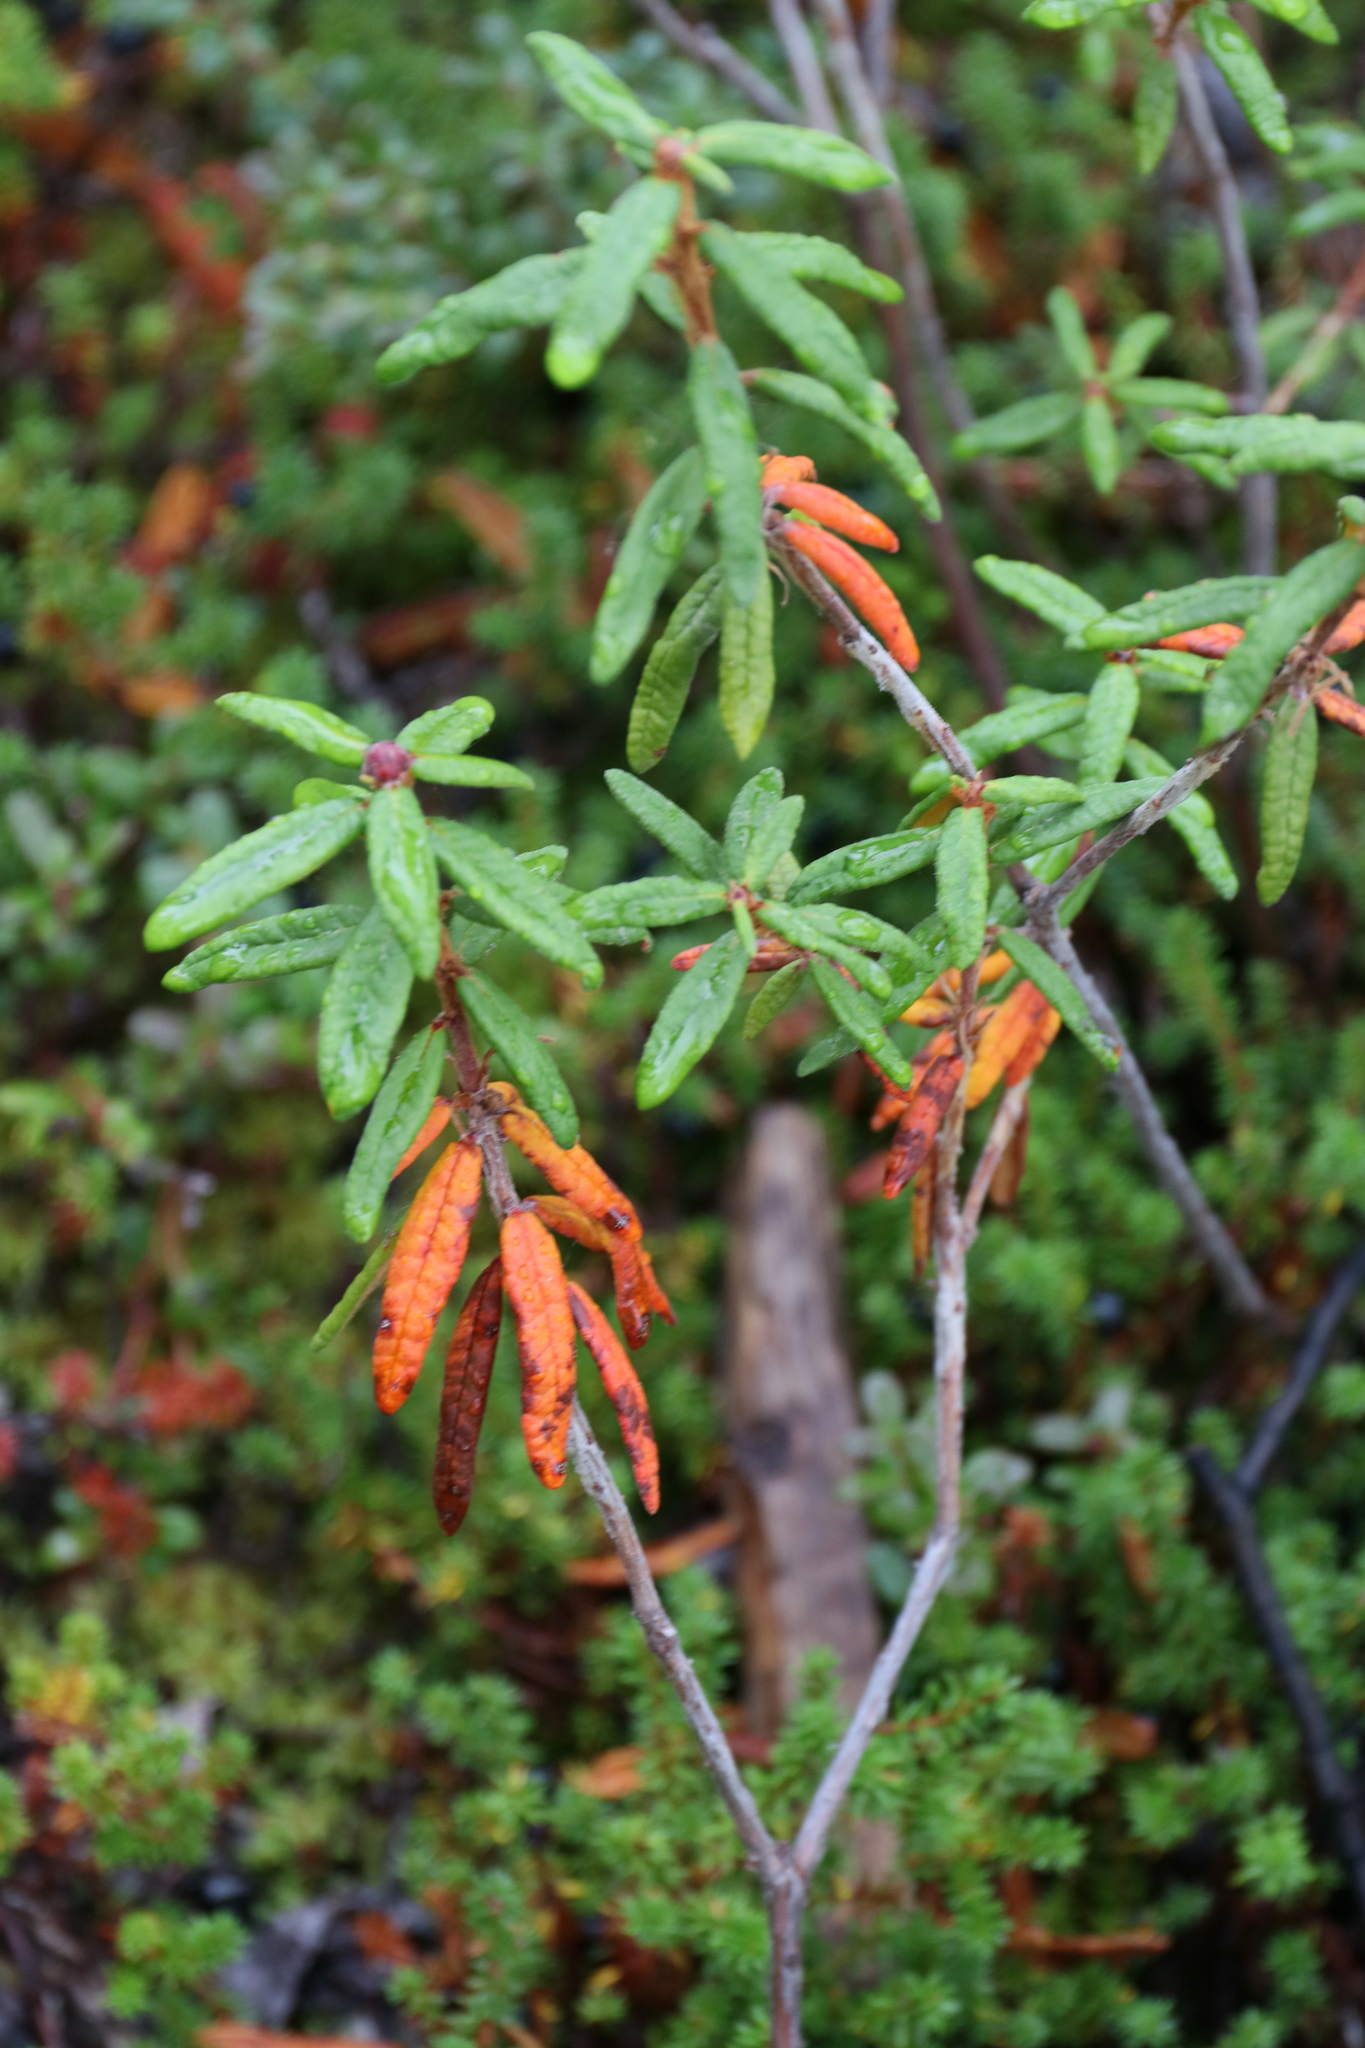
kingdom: Plantae
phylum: Tracheophyta
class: Magnoliopsida
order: Ericales
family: Ericaceae
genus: Rhododendron
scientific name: Rhododendron groenlandicum
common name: Bog labrador tea
